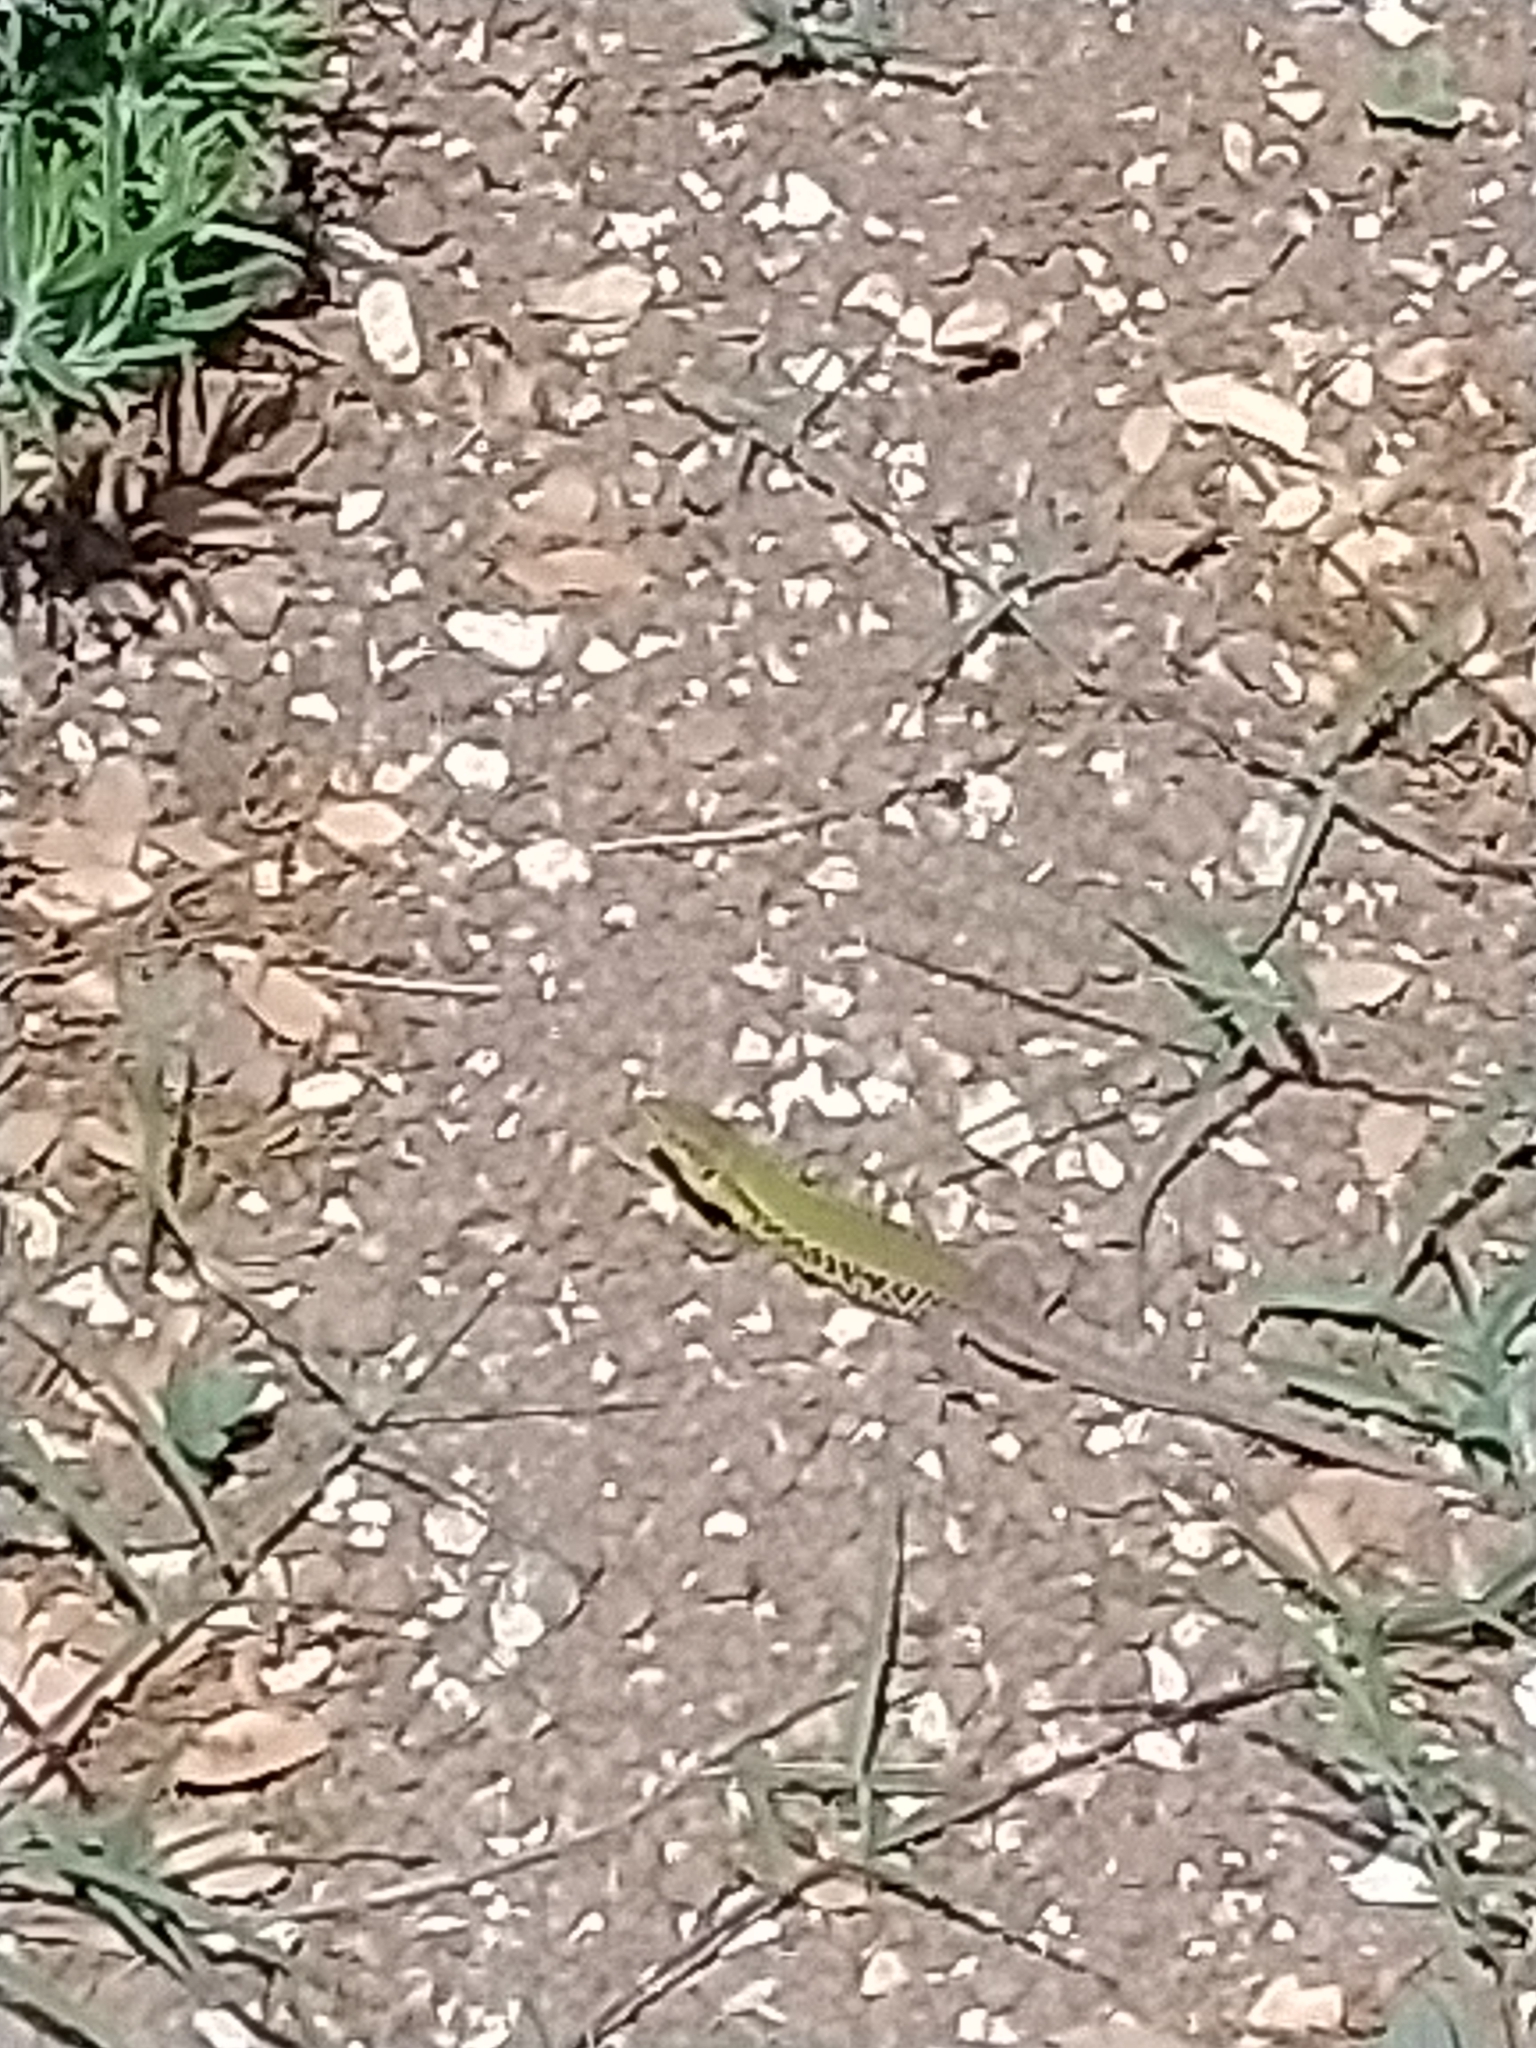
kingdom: Animalia
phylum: Chordata
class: Squamata
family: Lacertidae
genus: Podarcis
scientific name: Podarcis ionicus
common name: Ionian wall lizard
